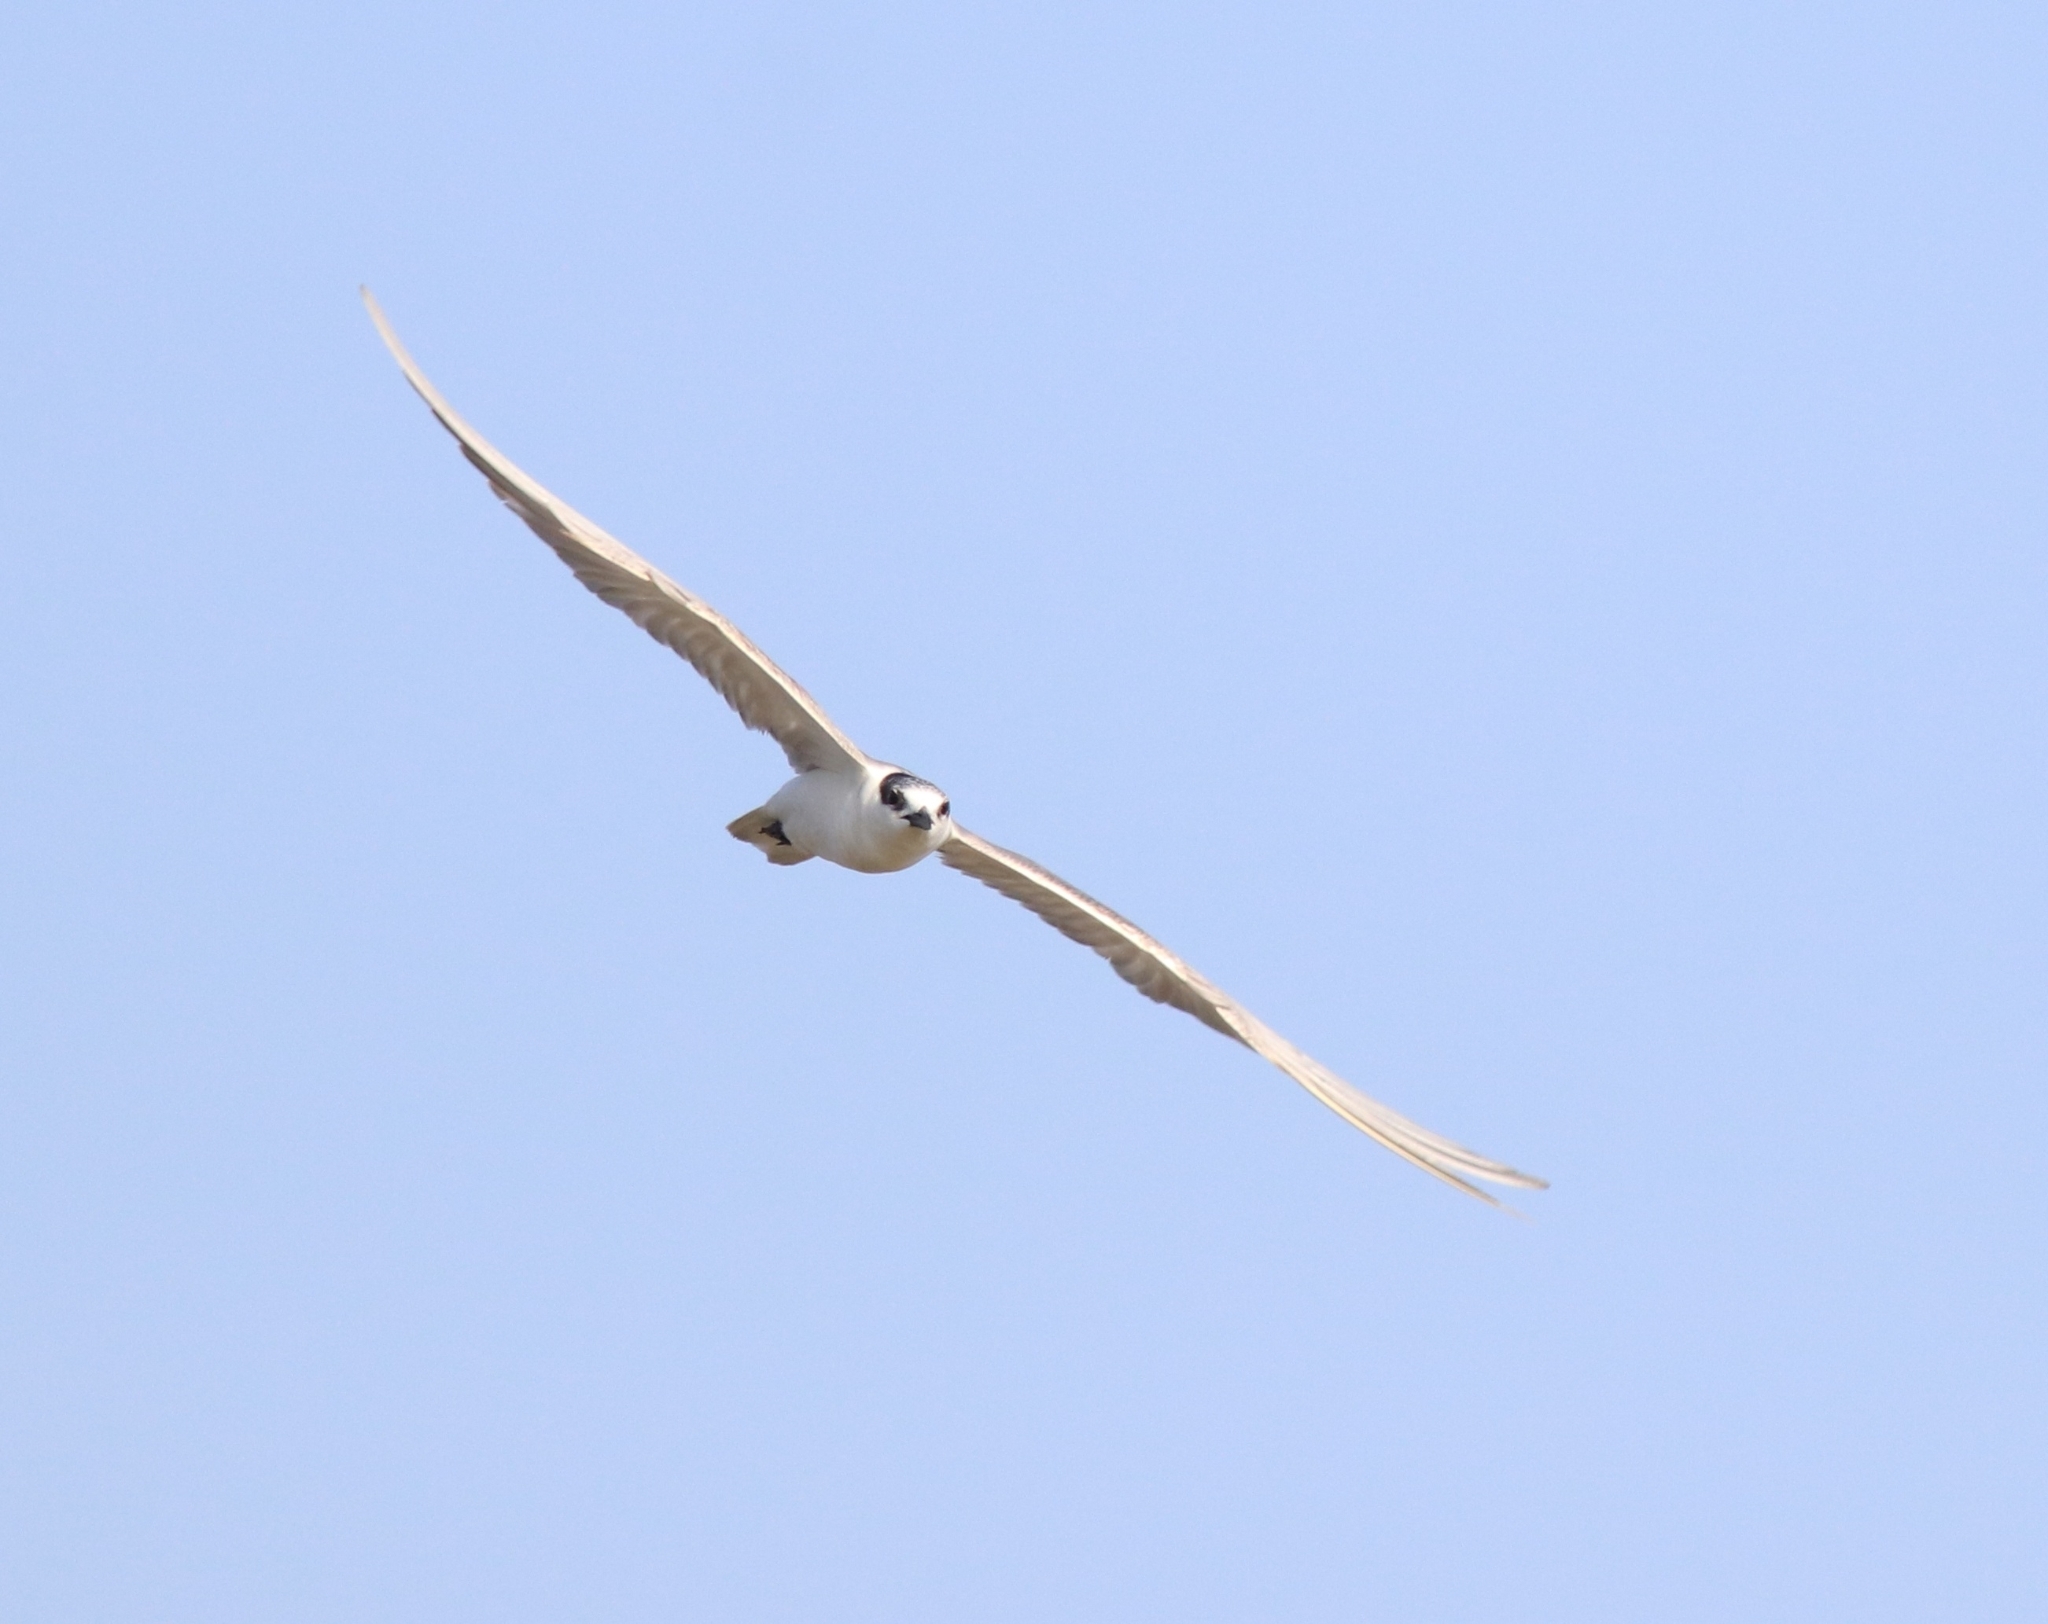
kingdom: Animalia
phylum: Chordata
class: Aves
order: Charadriiformes
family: Laridae
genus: Chlidonias
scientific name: Chlidonias hybrida
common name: Whiskered tern
